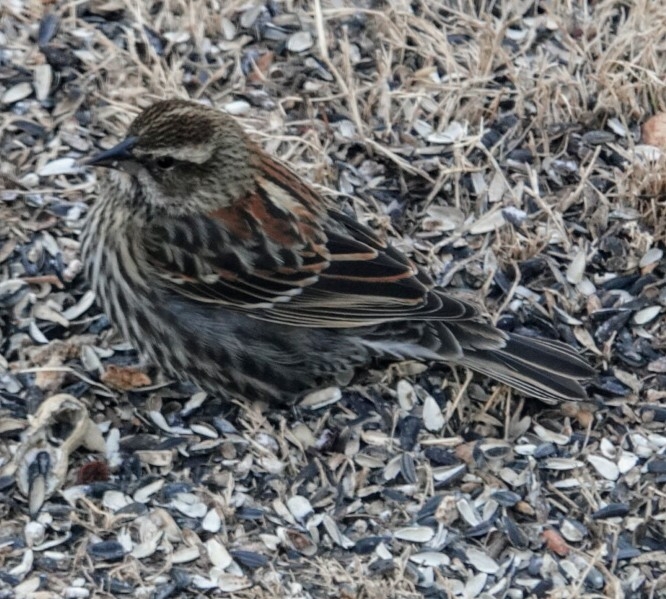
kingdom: Animalia
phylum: Chordata
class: Aves
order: Passeriformes
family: Icteridae
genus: Agelaius
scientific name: Agelaius phoeniceus
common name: Red-winged blackbird
